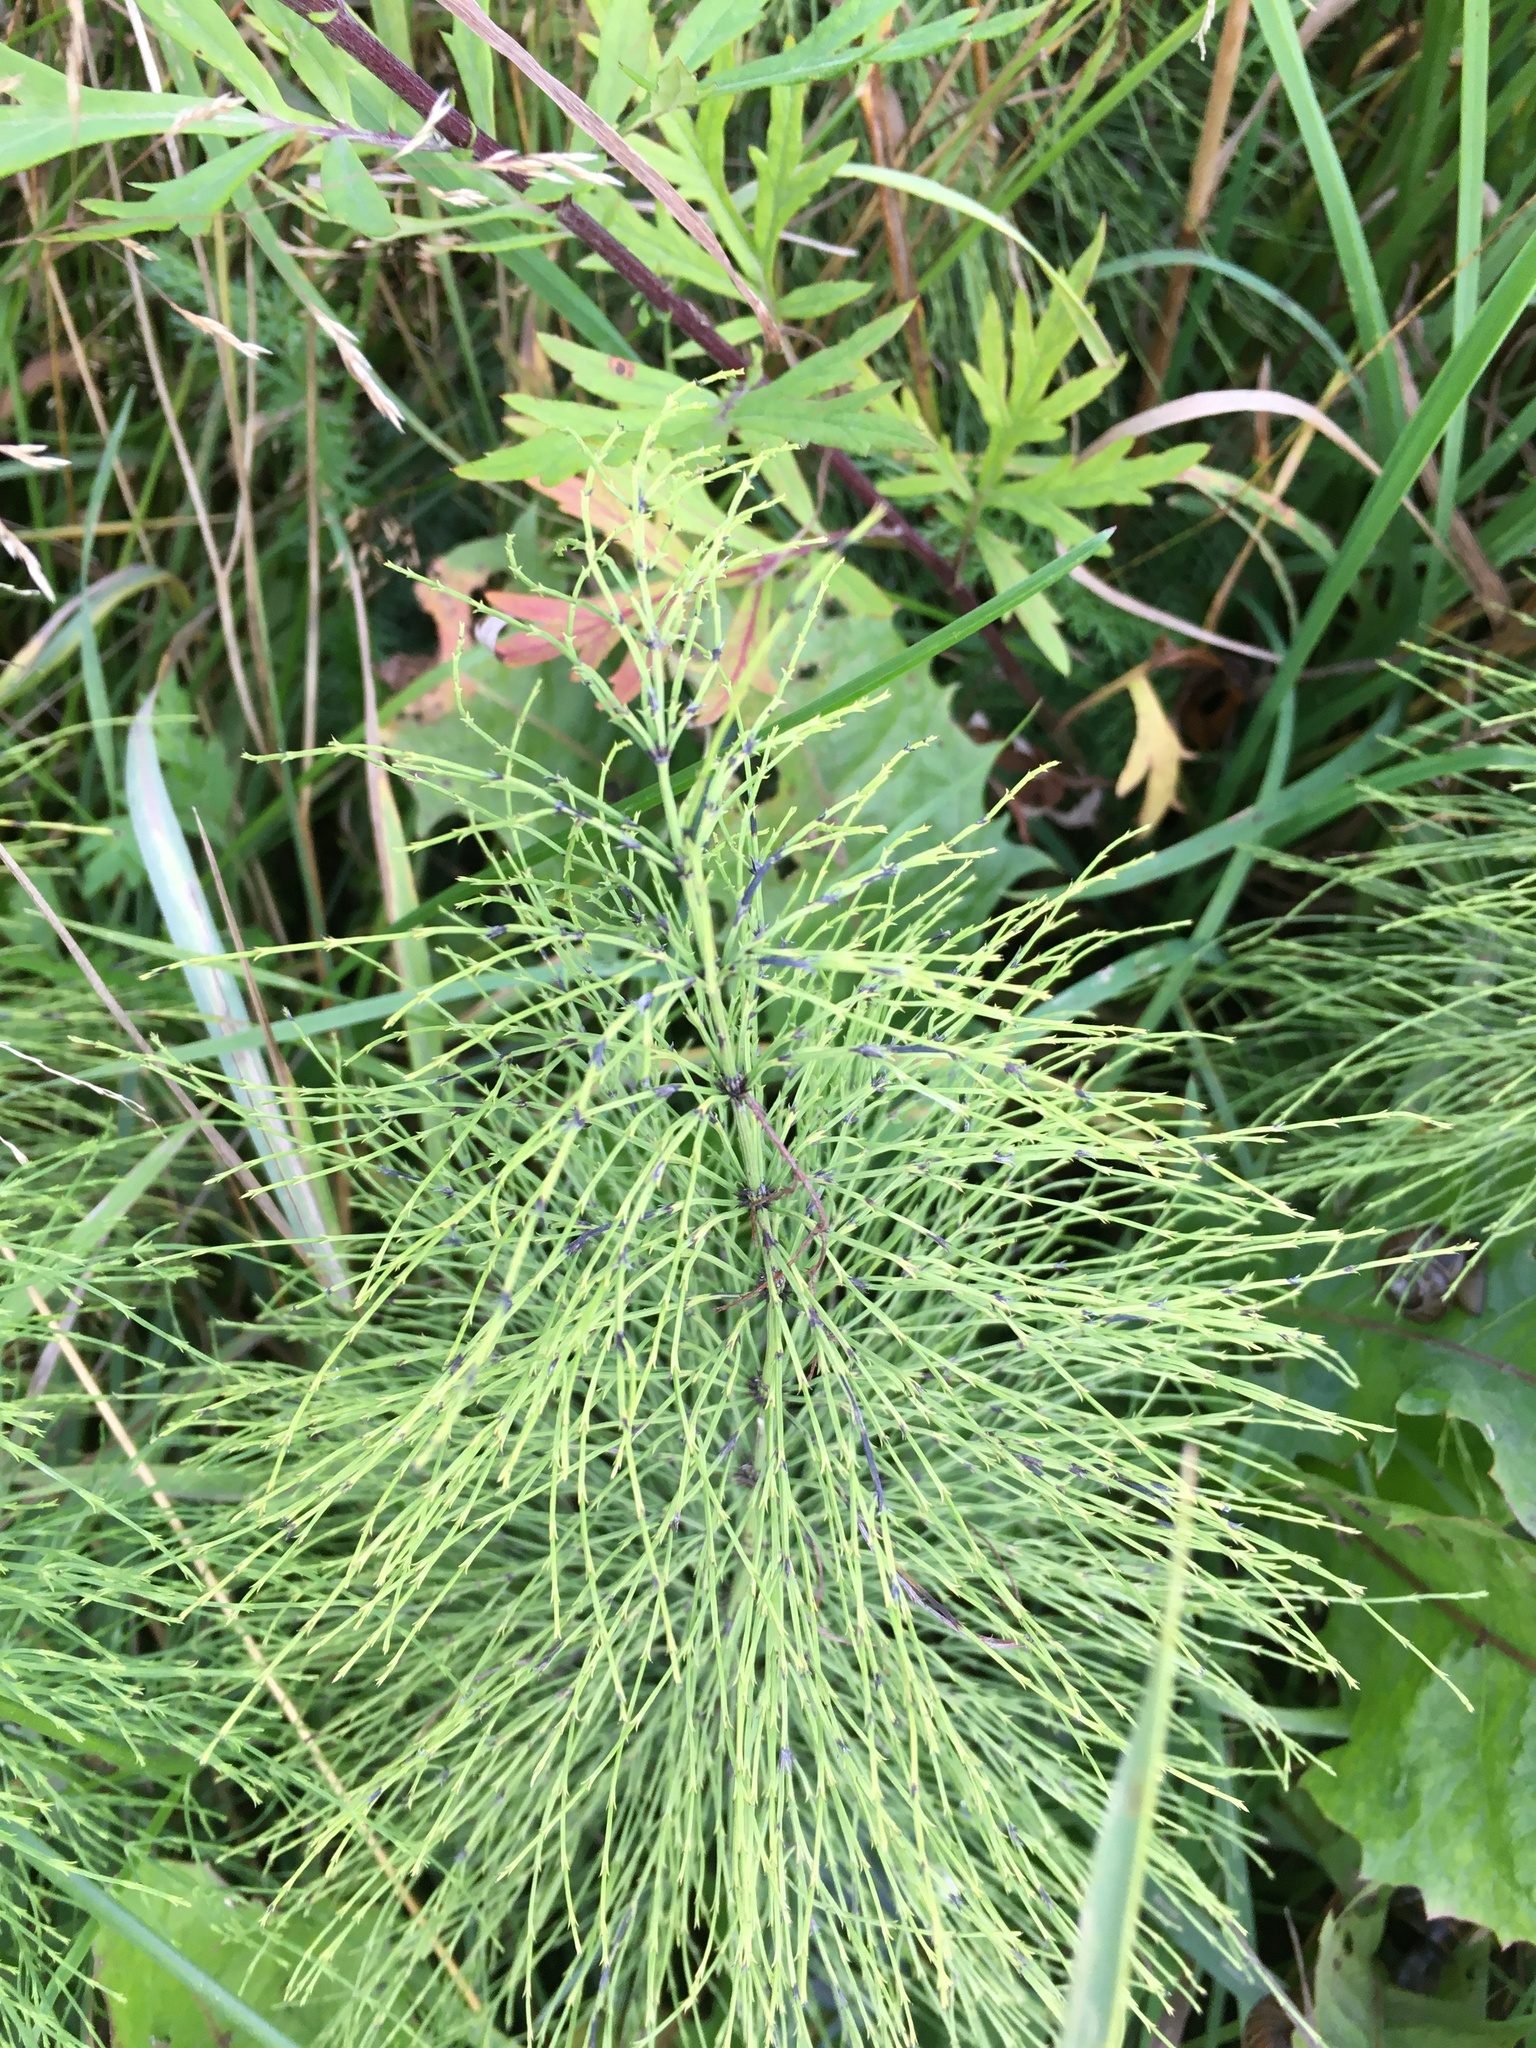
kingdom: Plantae
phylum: Tracheophyta
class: Polypodiopsida
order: Equisetales
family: Equisetaceae
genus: Equisetum
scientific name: Equisetum sylvaticum
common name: Wood horsetail
